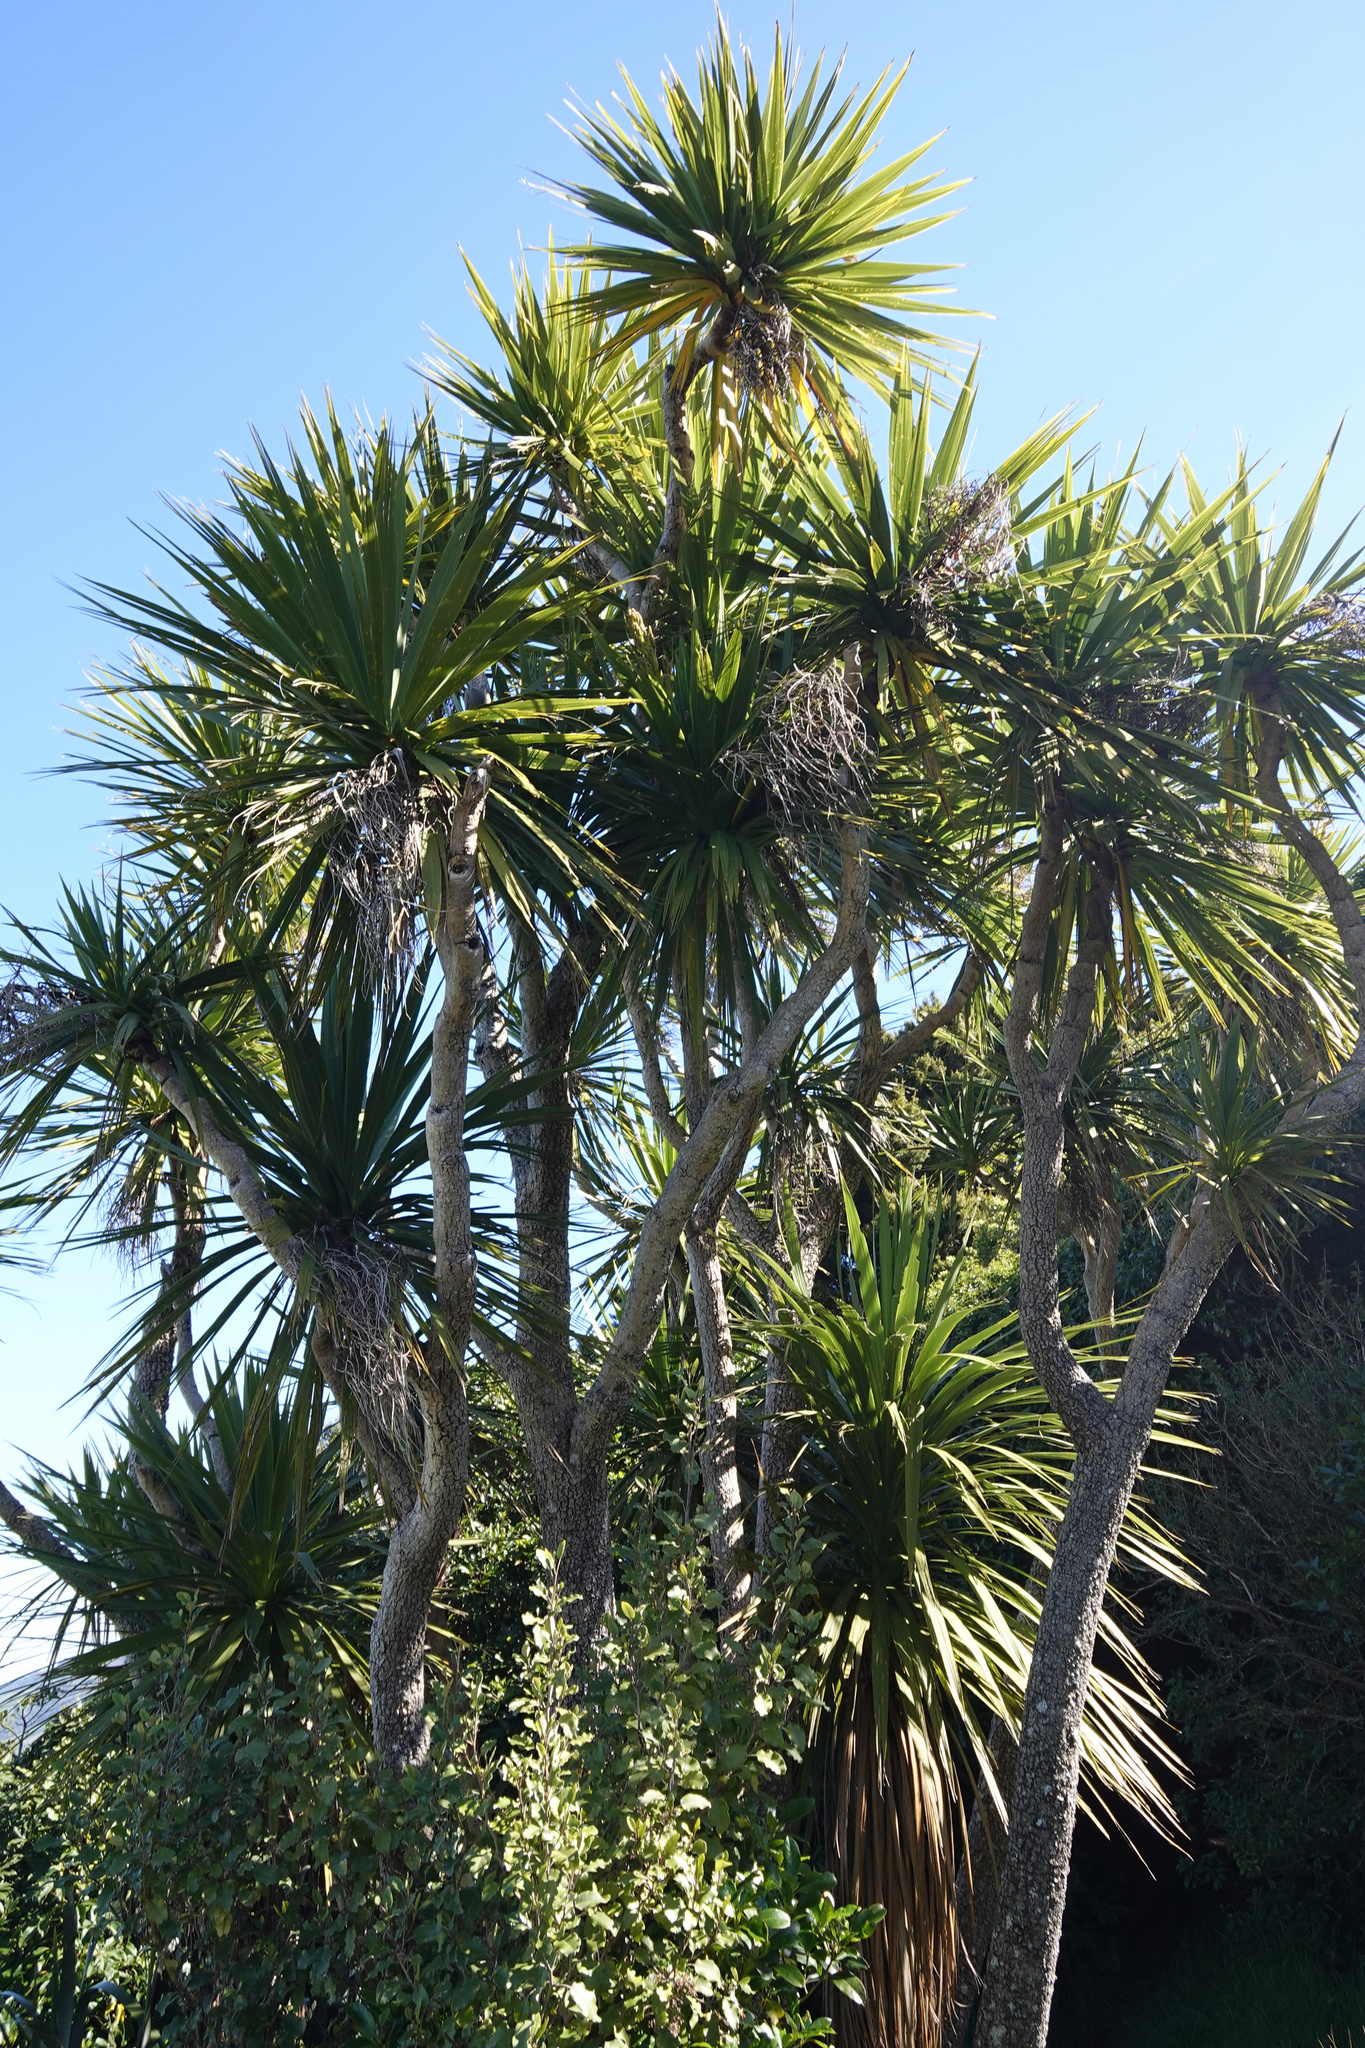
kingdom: Plantae
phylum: Tracheophyta
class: Liliopsida
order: Asparagales
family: Asparagaceae
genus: Cordyline
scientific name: Cordyline australis
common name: Cabbage-palm
